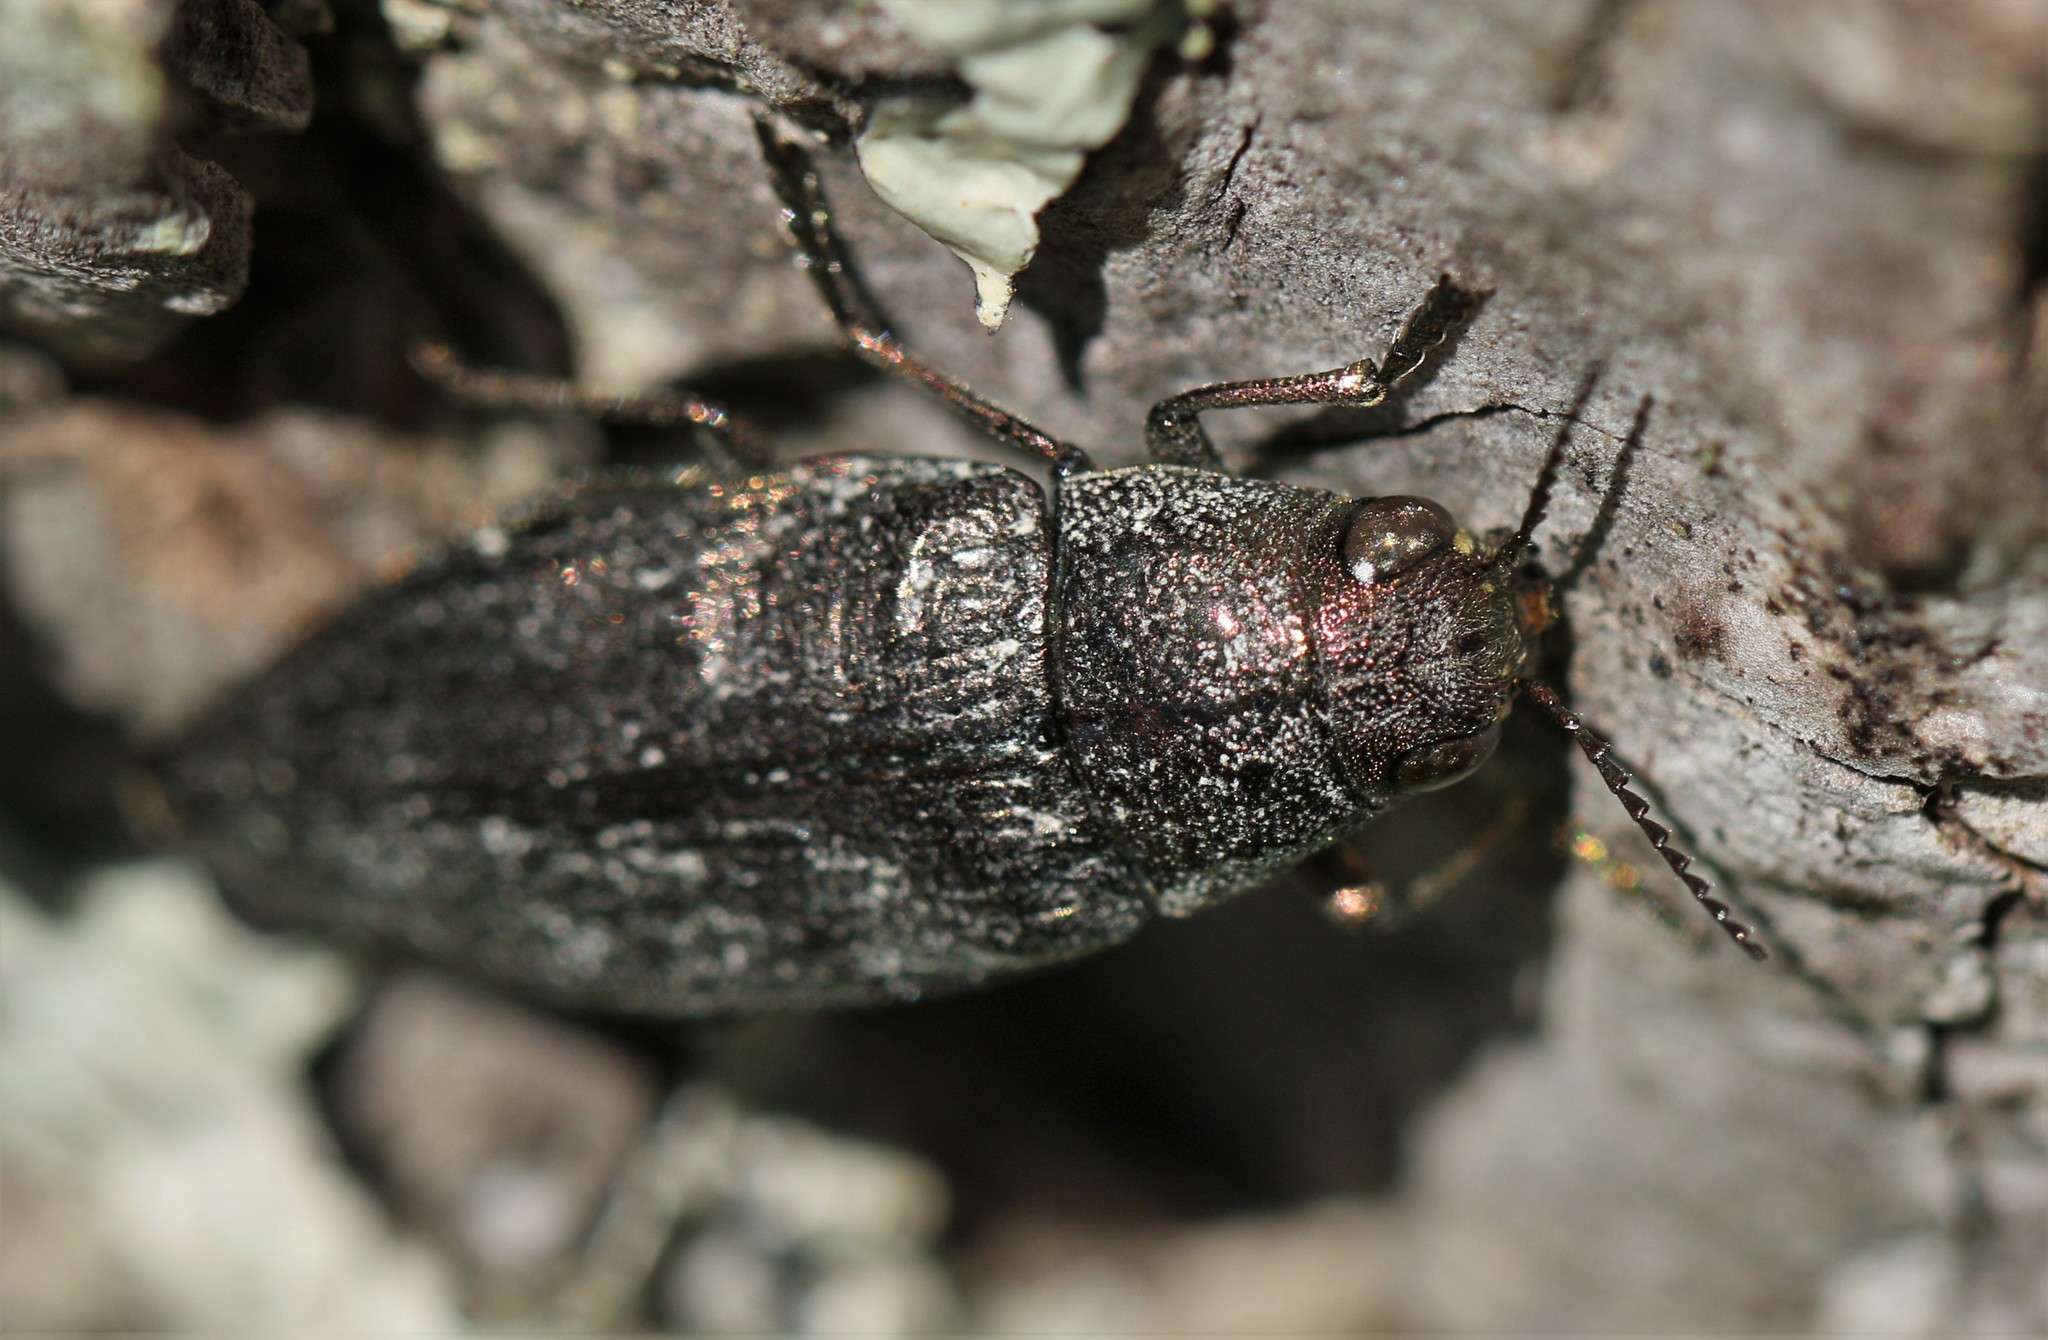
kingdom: Animalia
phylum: Arthropoda
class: Insecta
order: Coleoptera
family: Buprestidae
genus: Buprestis
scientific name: Buprestis maculativentris
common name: Spotted-belly buprestid beetle
